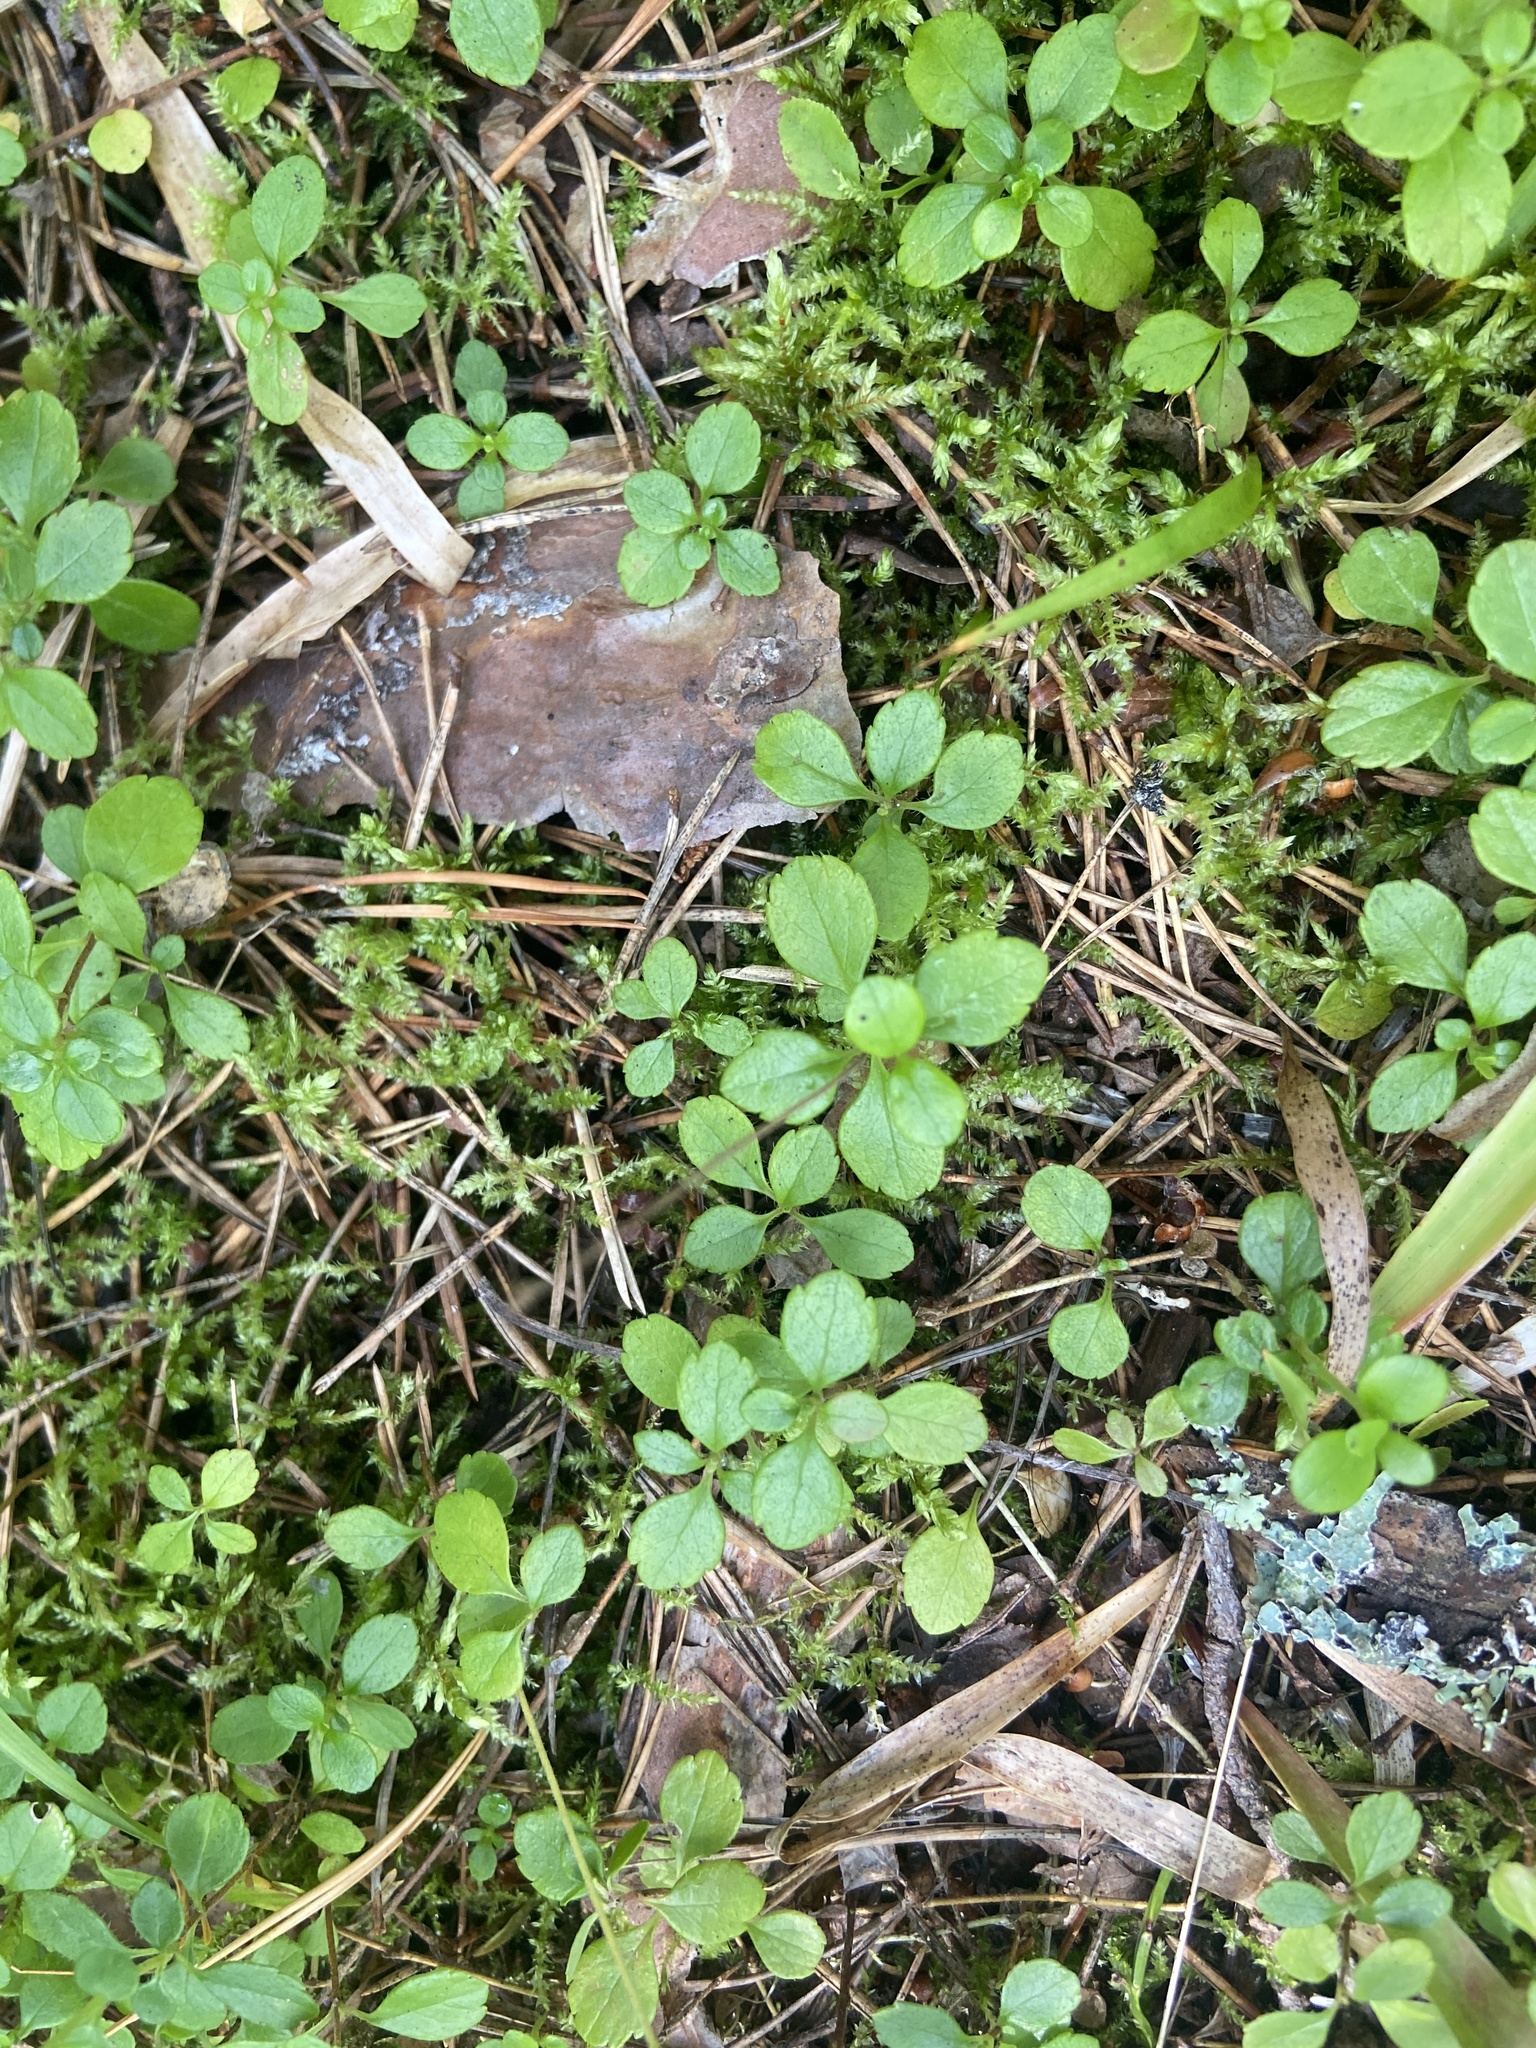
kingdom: Plantae
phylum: Tracheophyta
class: Magnoliopsida
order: Dipsacales
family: Caprifoliaceae
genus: Linnaea
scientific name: Linnaea borealis
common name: Twinflower
